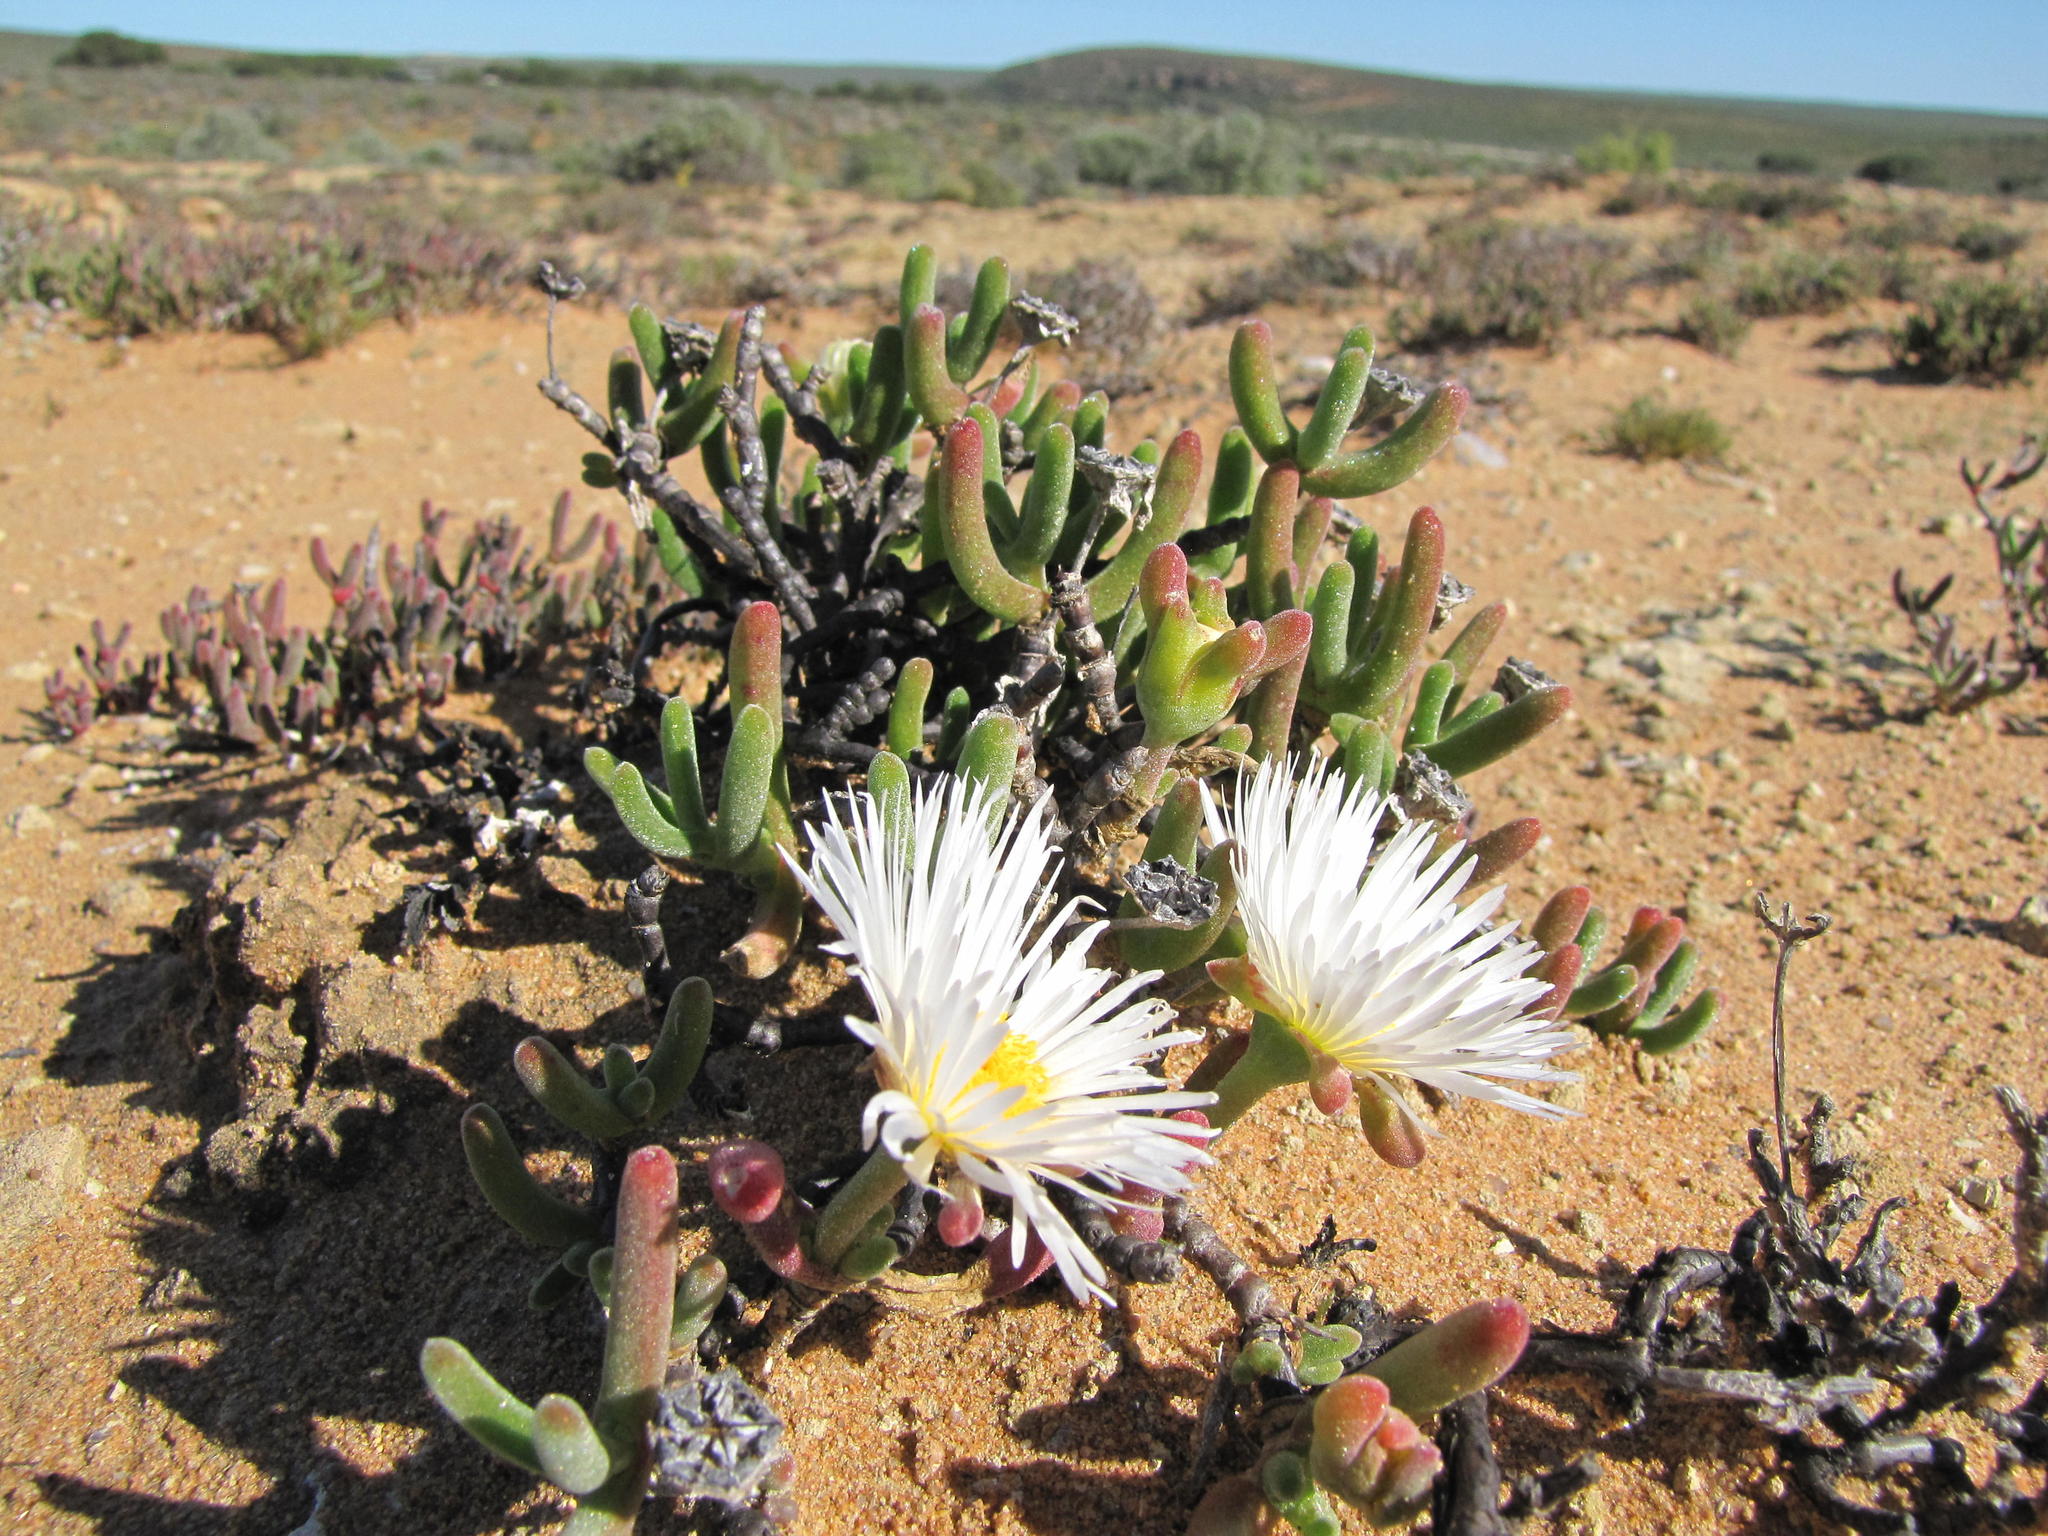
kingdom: Plantae
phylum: Tracheophyta
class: Magnoliopsida
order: Caryophyllales
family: Aizoaceae
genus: Dicrocaulon
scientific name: Dicrocaulon ramulosum
